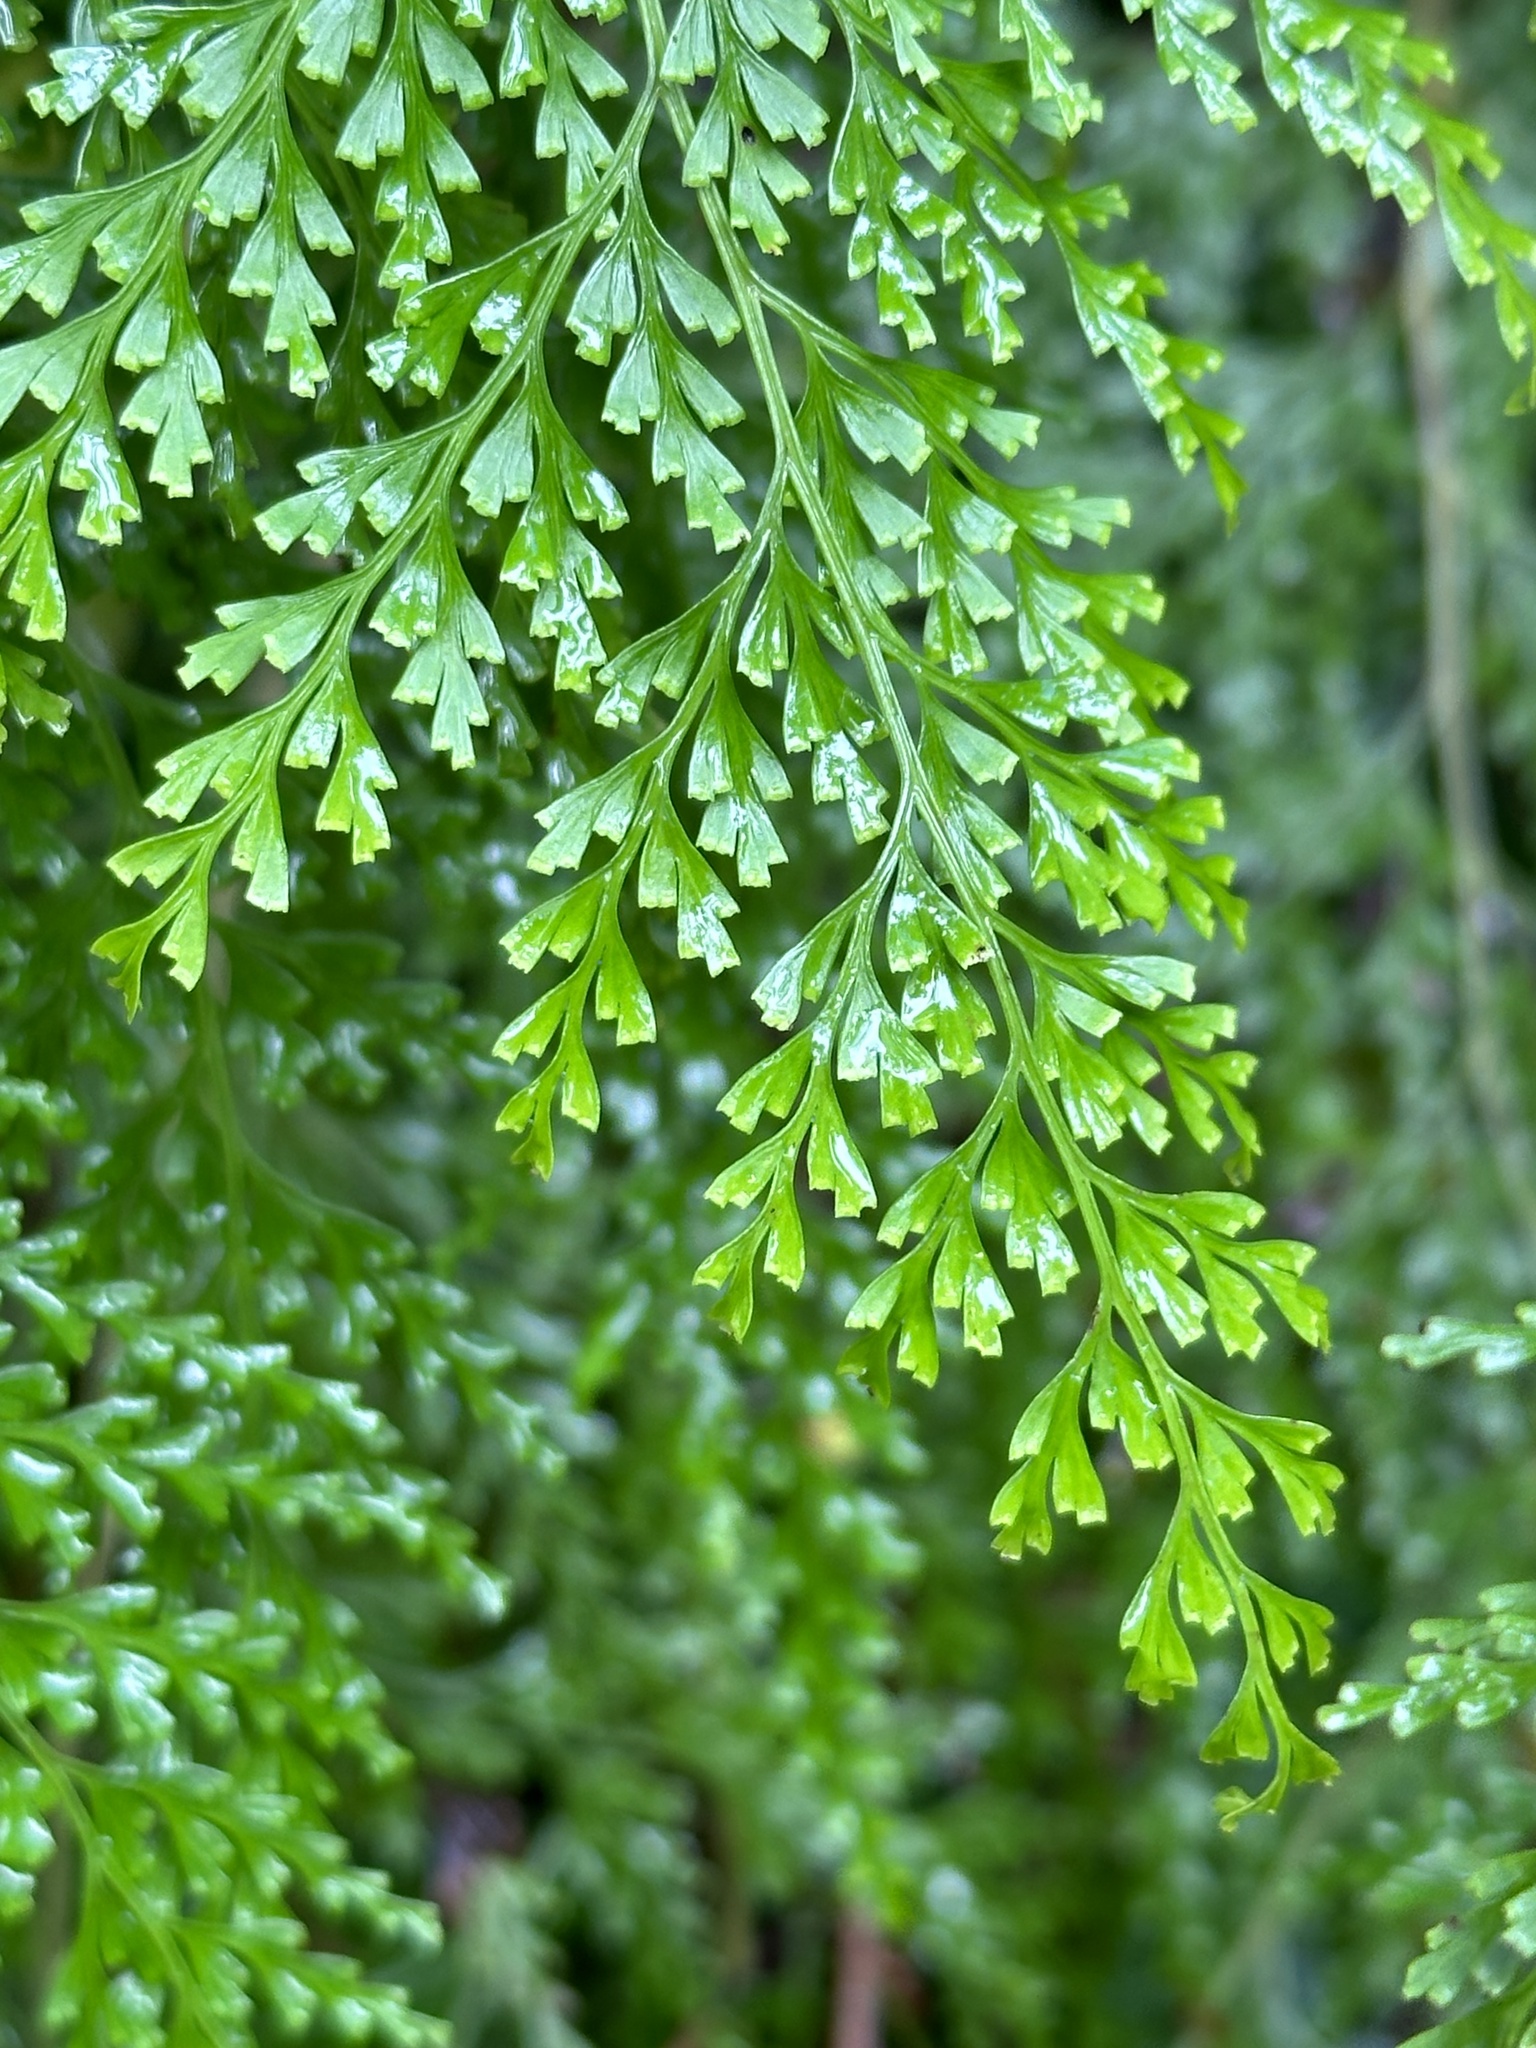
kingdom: Plantae
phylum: Tracheophyta
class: Polypodiopsida
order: Polypodiales
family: Lindsaeaceae
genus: Odontosoria
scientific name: Odontosoria chinensis
